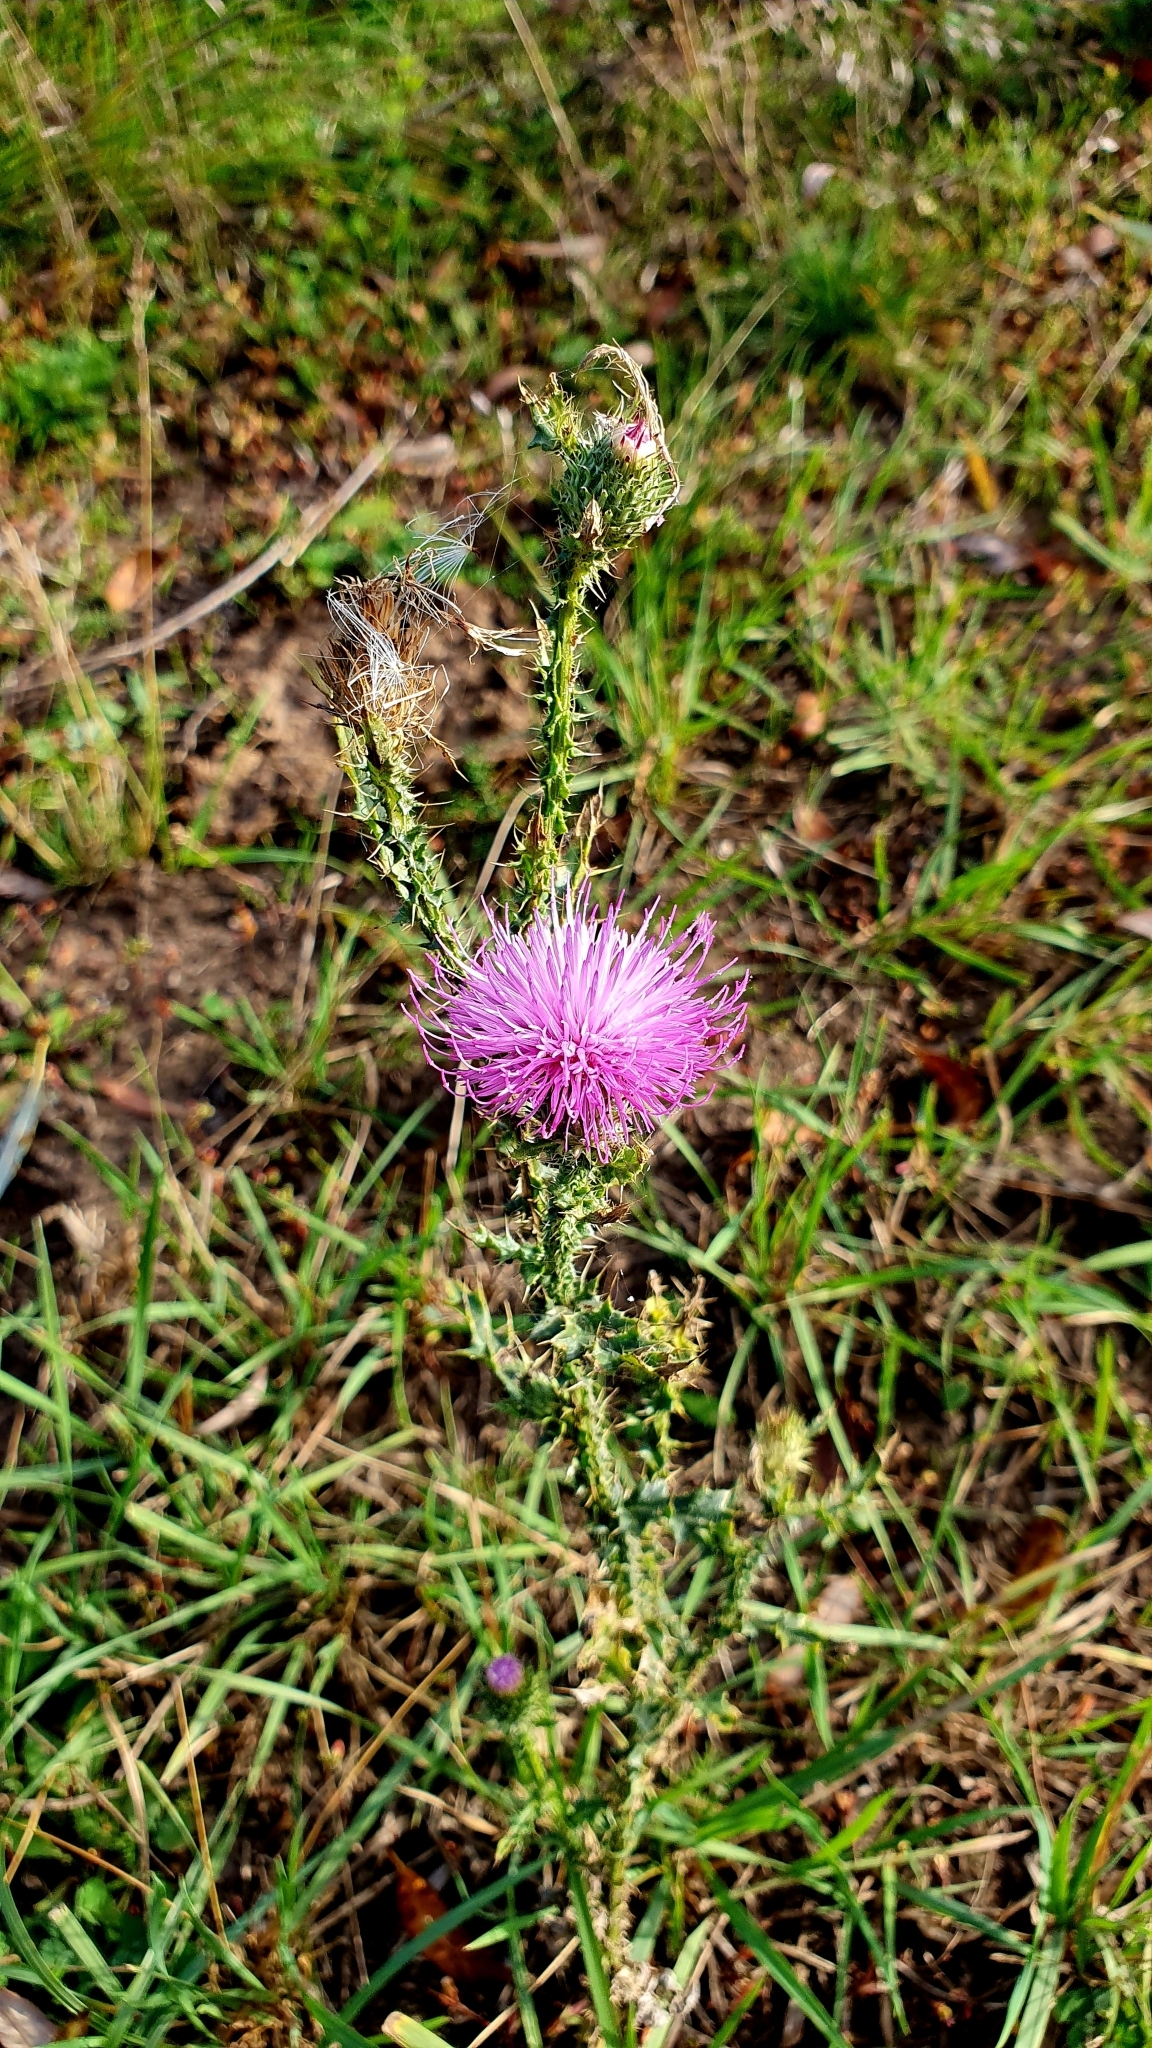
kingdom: Plantae
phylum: Tracheophyta
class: Magnoliopsida
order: Asterales
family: Asteraceae
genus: Carduus
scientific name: Carduus acanthoides
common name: Plumeless thistle
